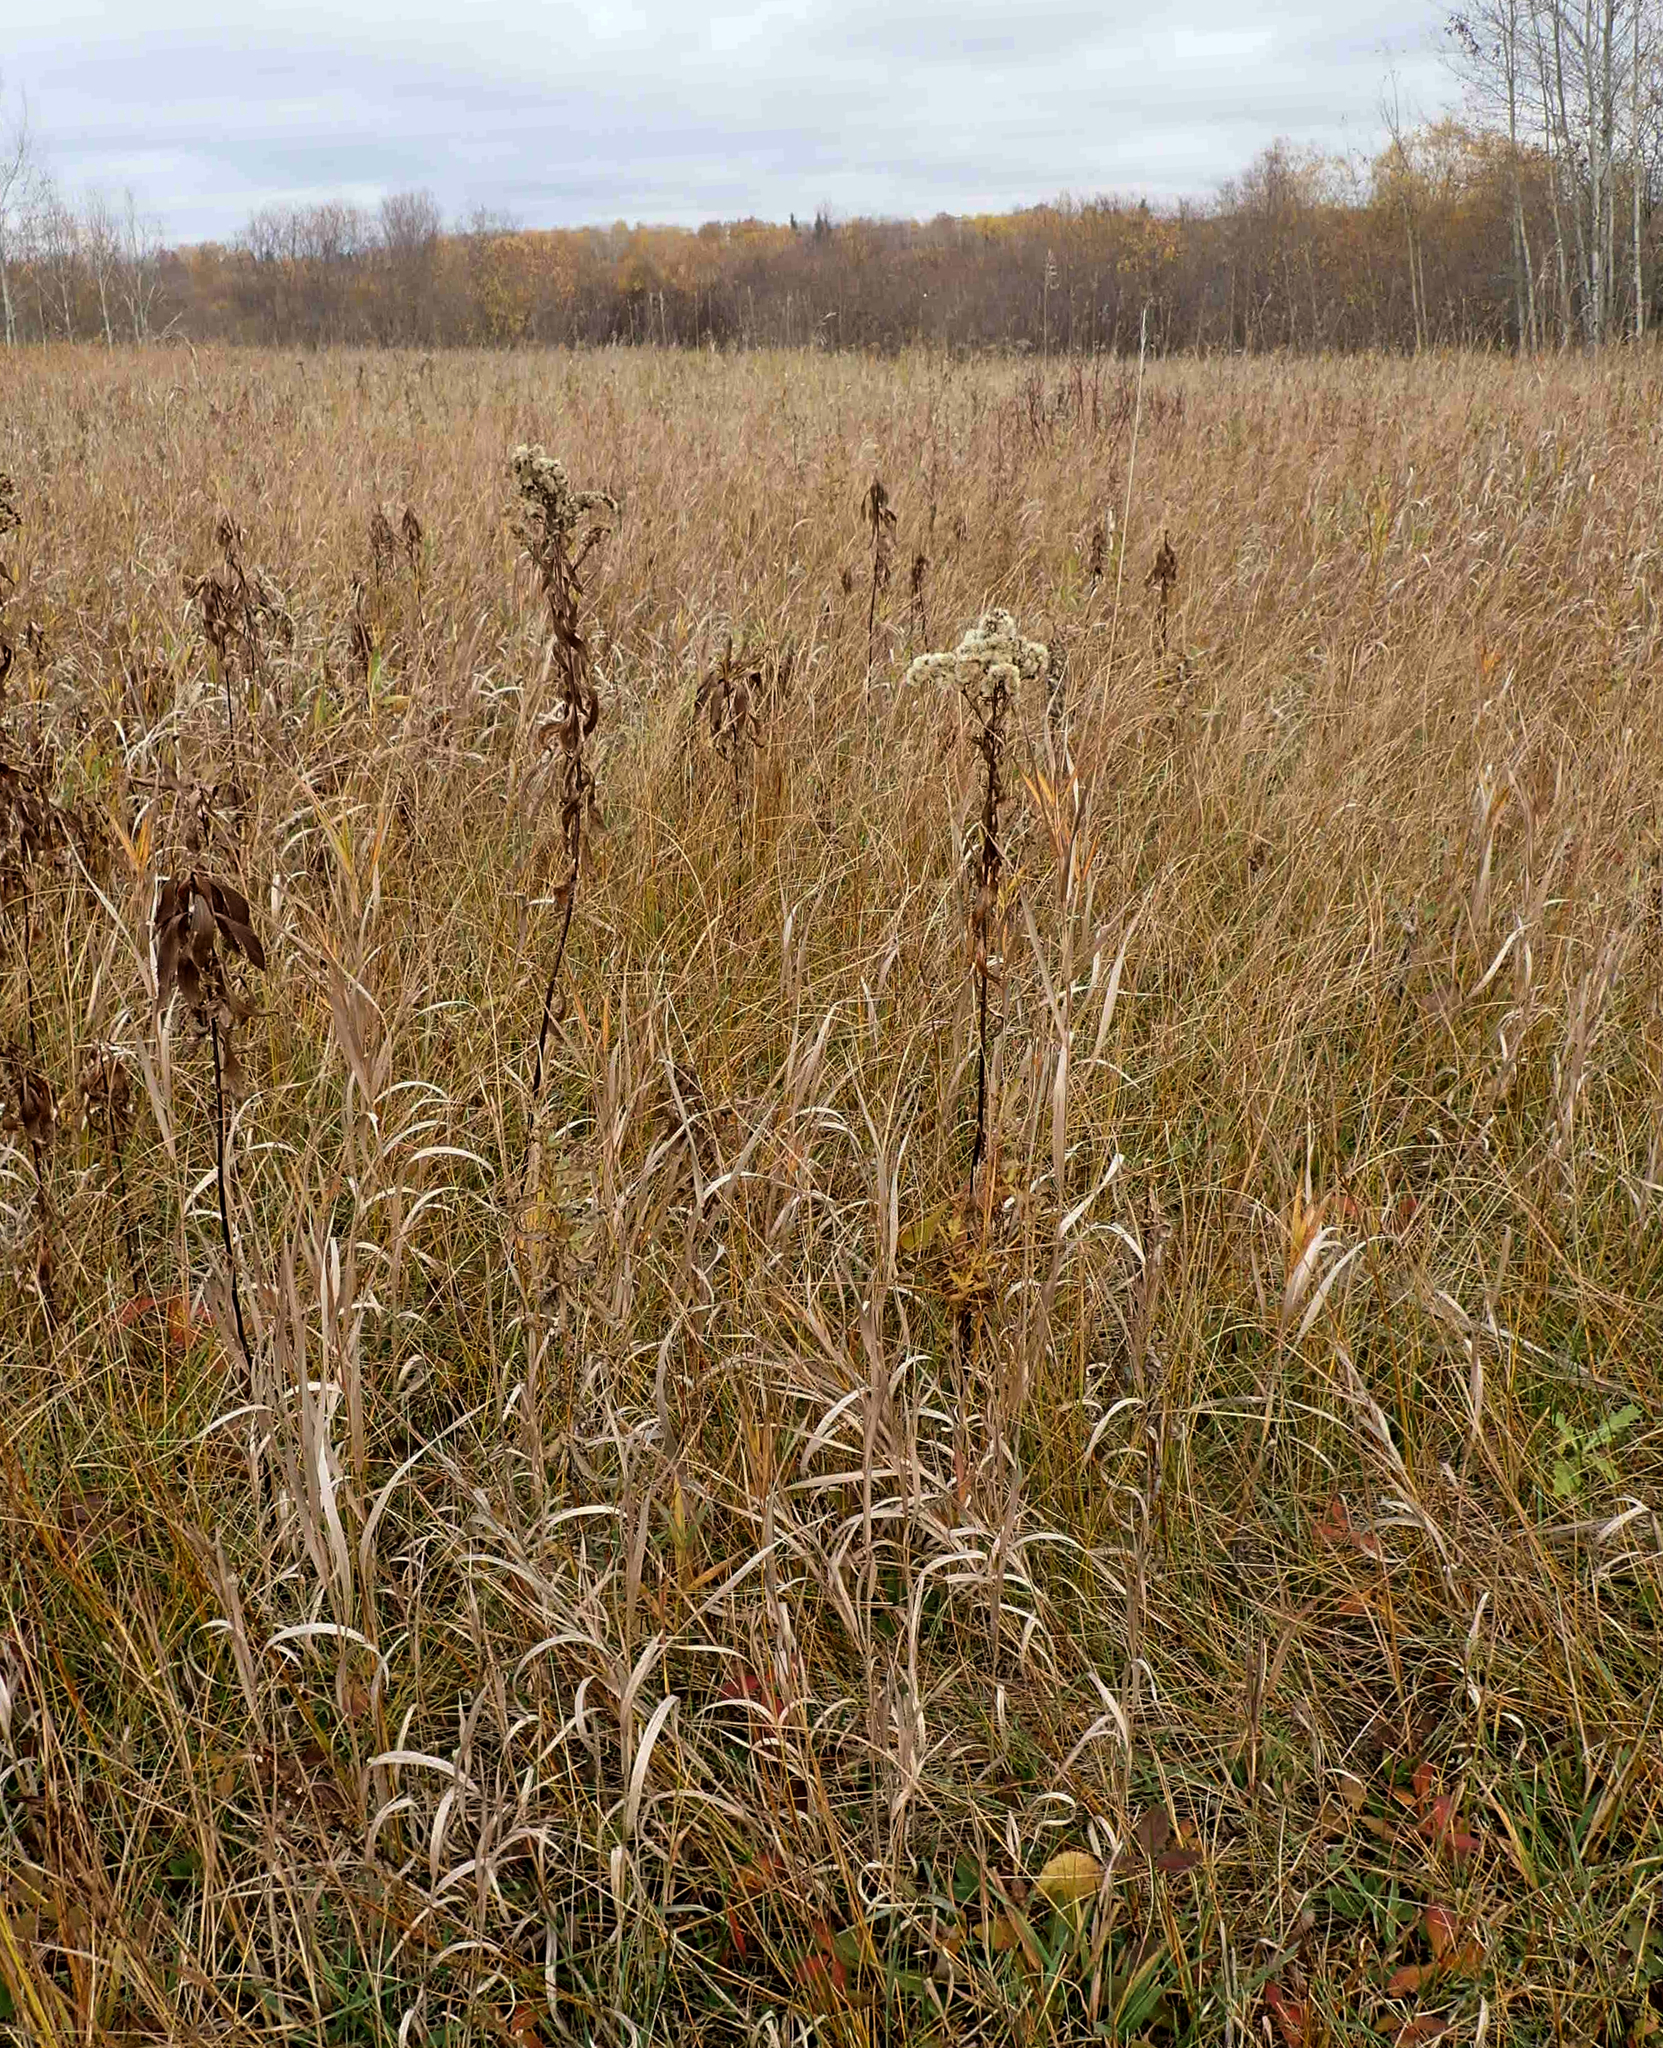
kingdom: Plantae
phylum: Tracheophyta
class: Magnoliopsida
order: Asterales
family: Asteraceae
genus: Solidago
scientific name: Solidago rigida
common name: Rigid goldenrod
